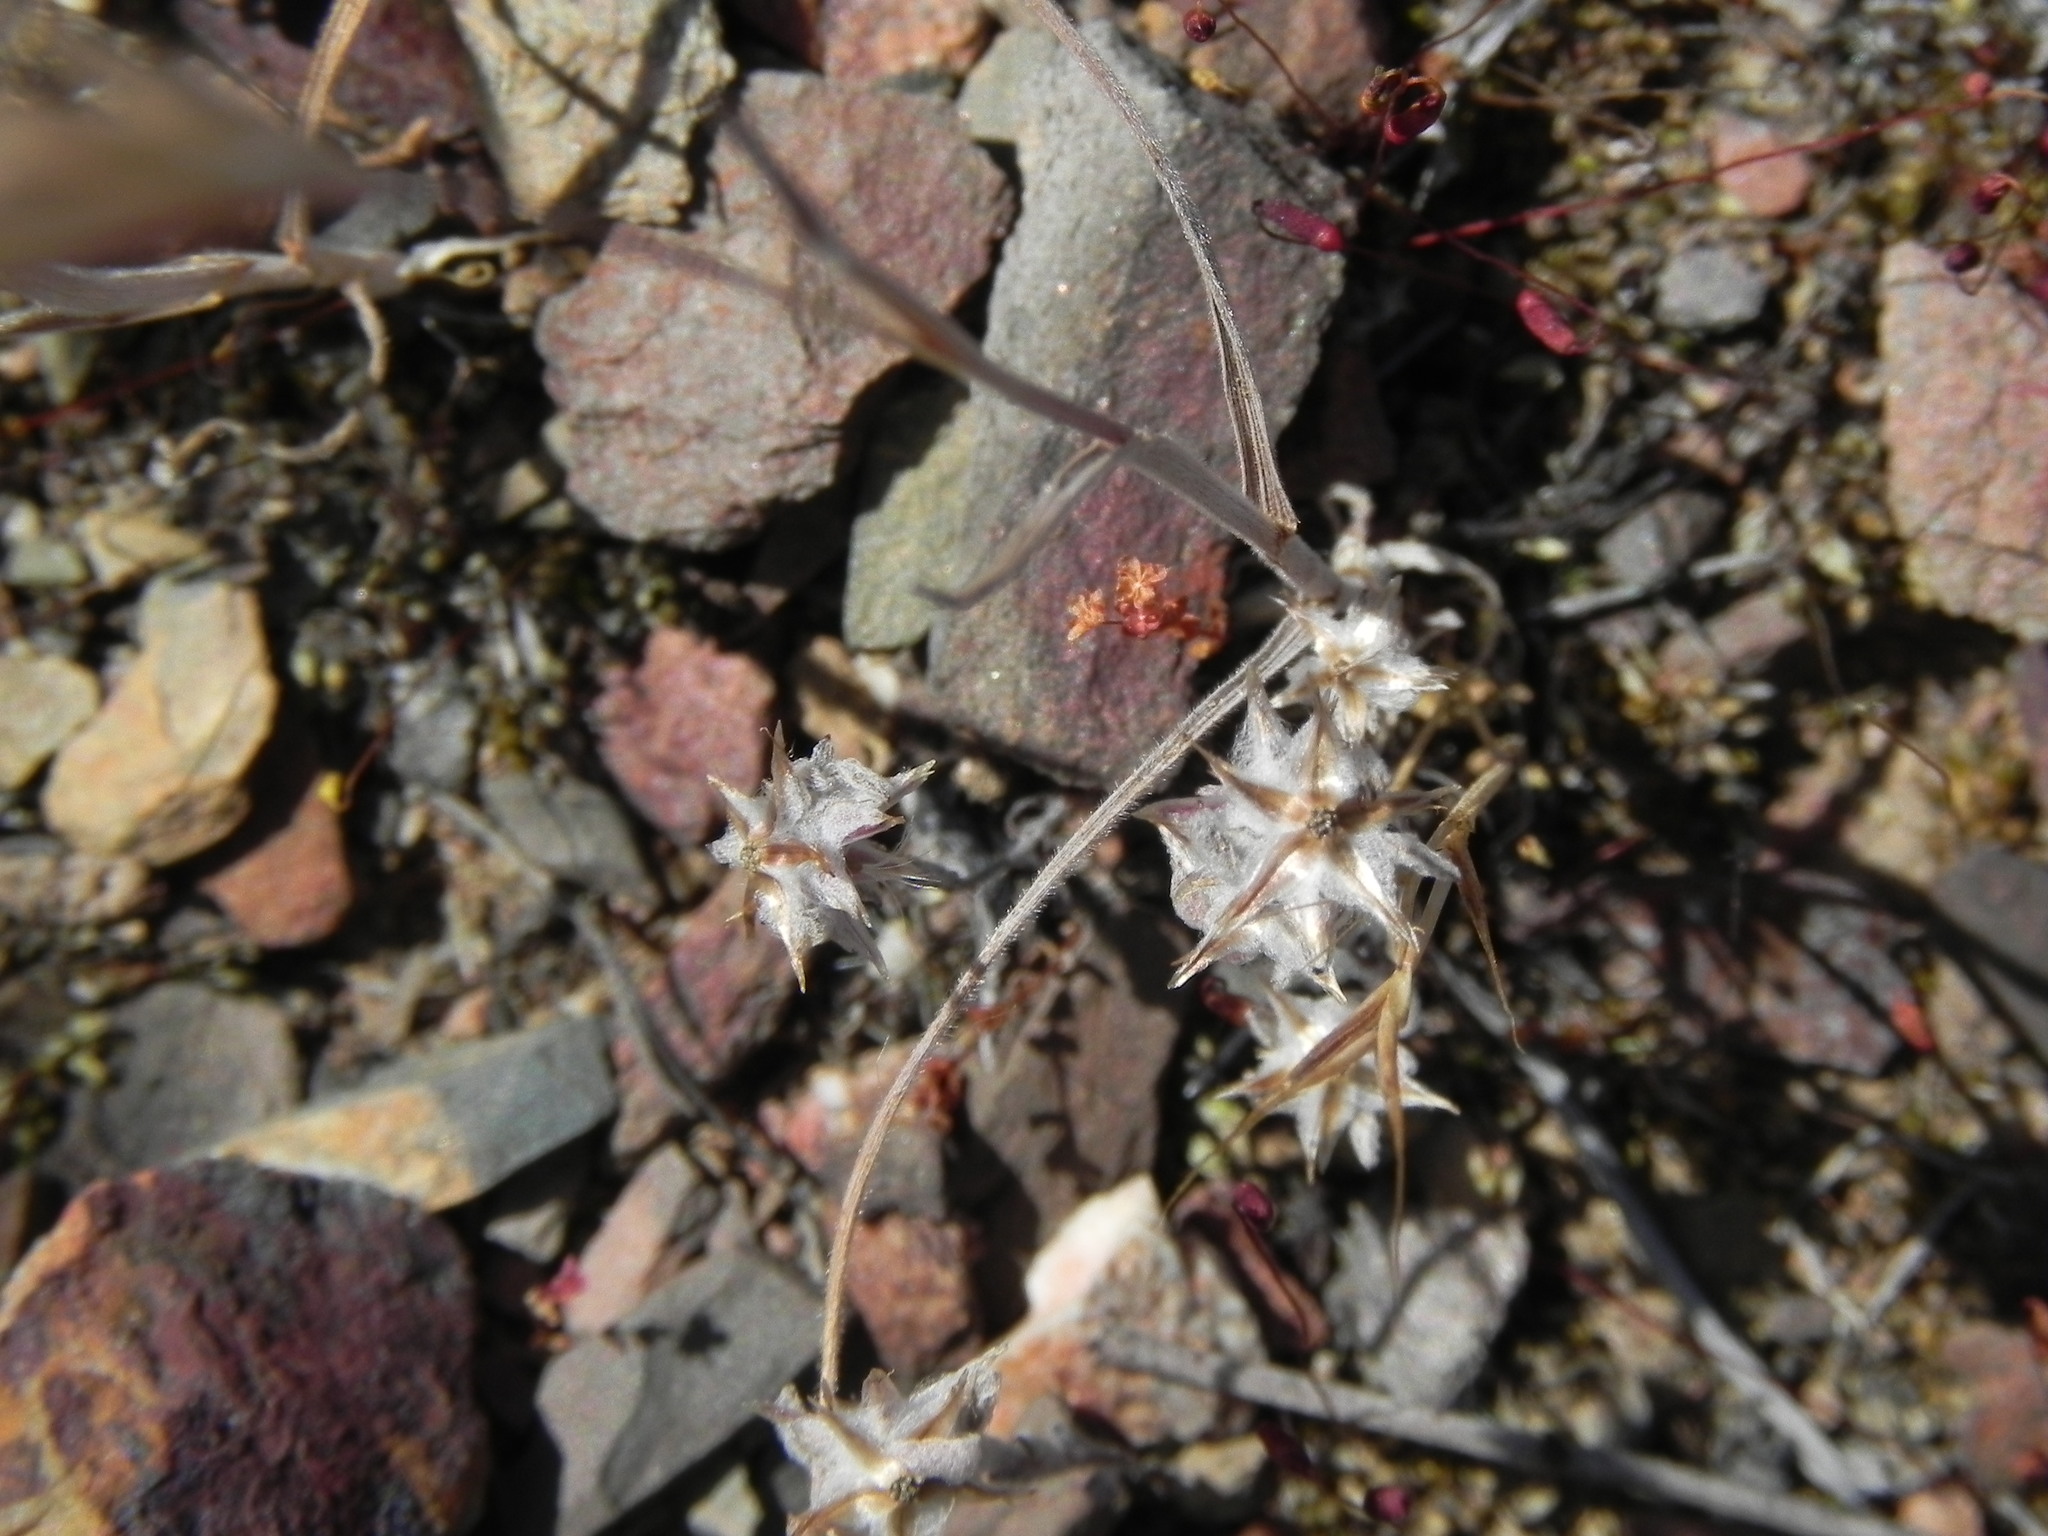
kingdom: Plantae
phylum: Tracheophyta
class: Magnoliopsida
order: Asterales
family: Asteraceae
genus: Logfia
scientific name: Logfia californica
